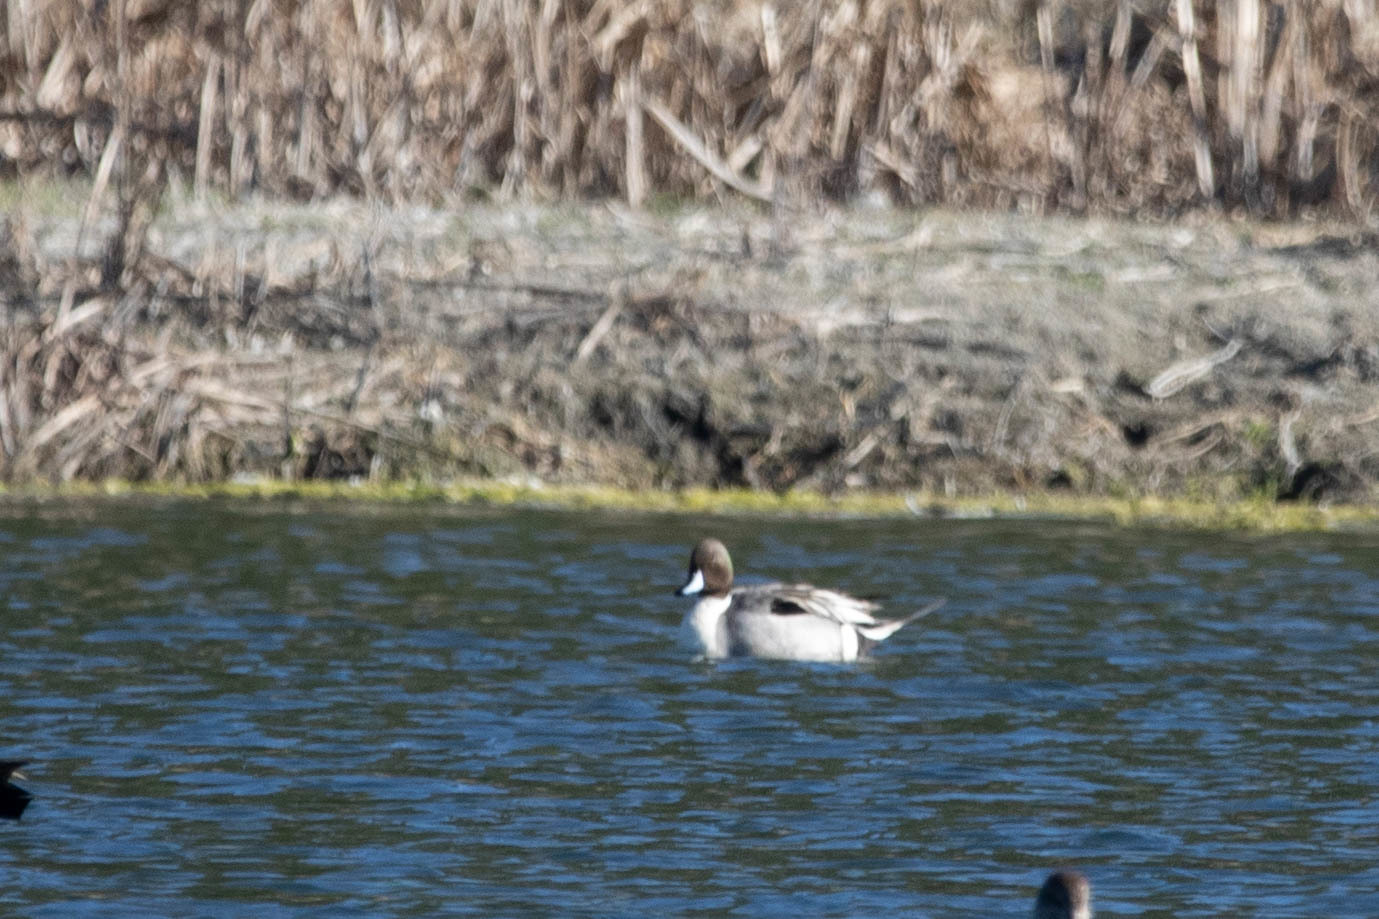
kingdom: Animalia
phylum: Chordata
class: Aves
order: Anseriformes
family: Anatidae
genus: Anas
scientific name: Anas acuta
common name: Northern pintail
